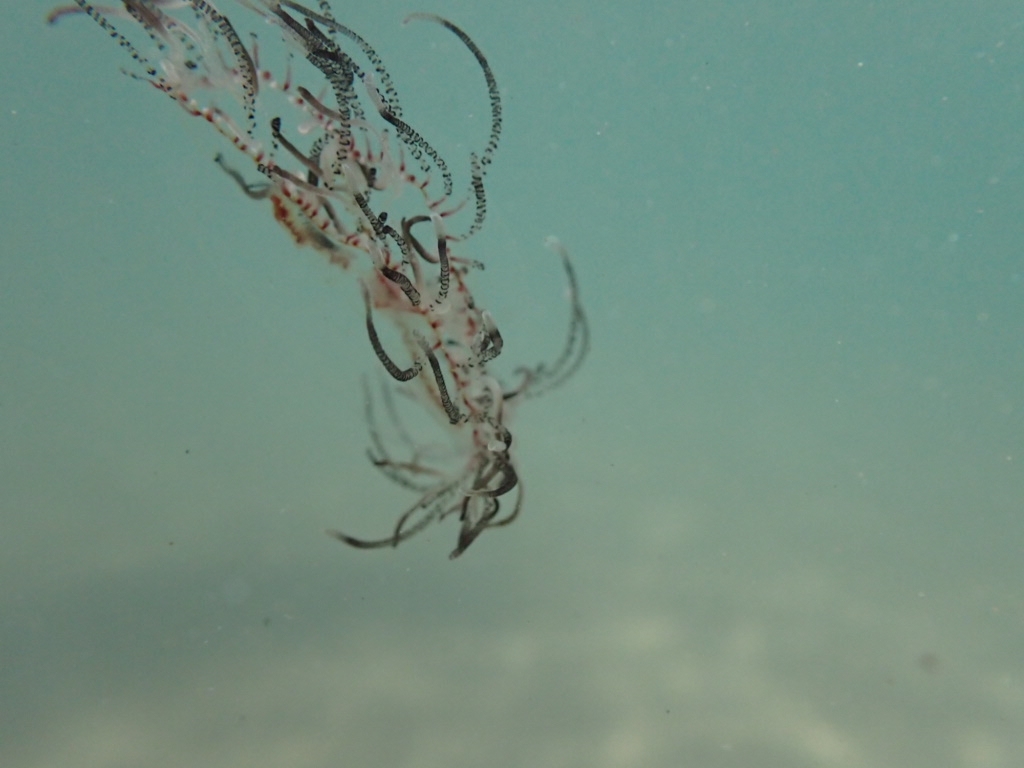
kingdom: Animalia
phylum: Cnidaria
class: Hydrozoa
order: Limnomedusae
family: Olindiidae
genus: Olindias
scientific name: Olindias muelleri
